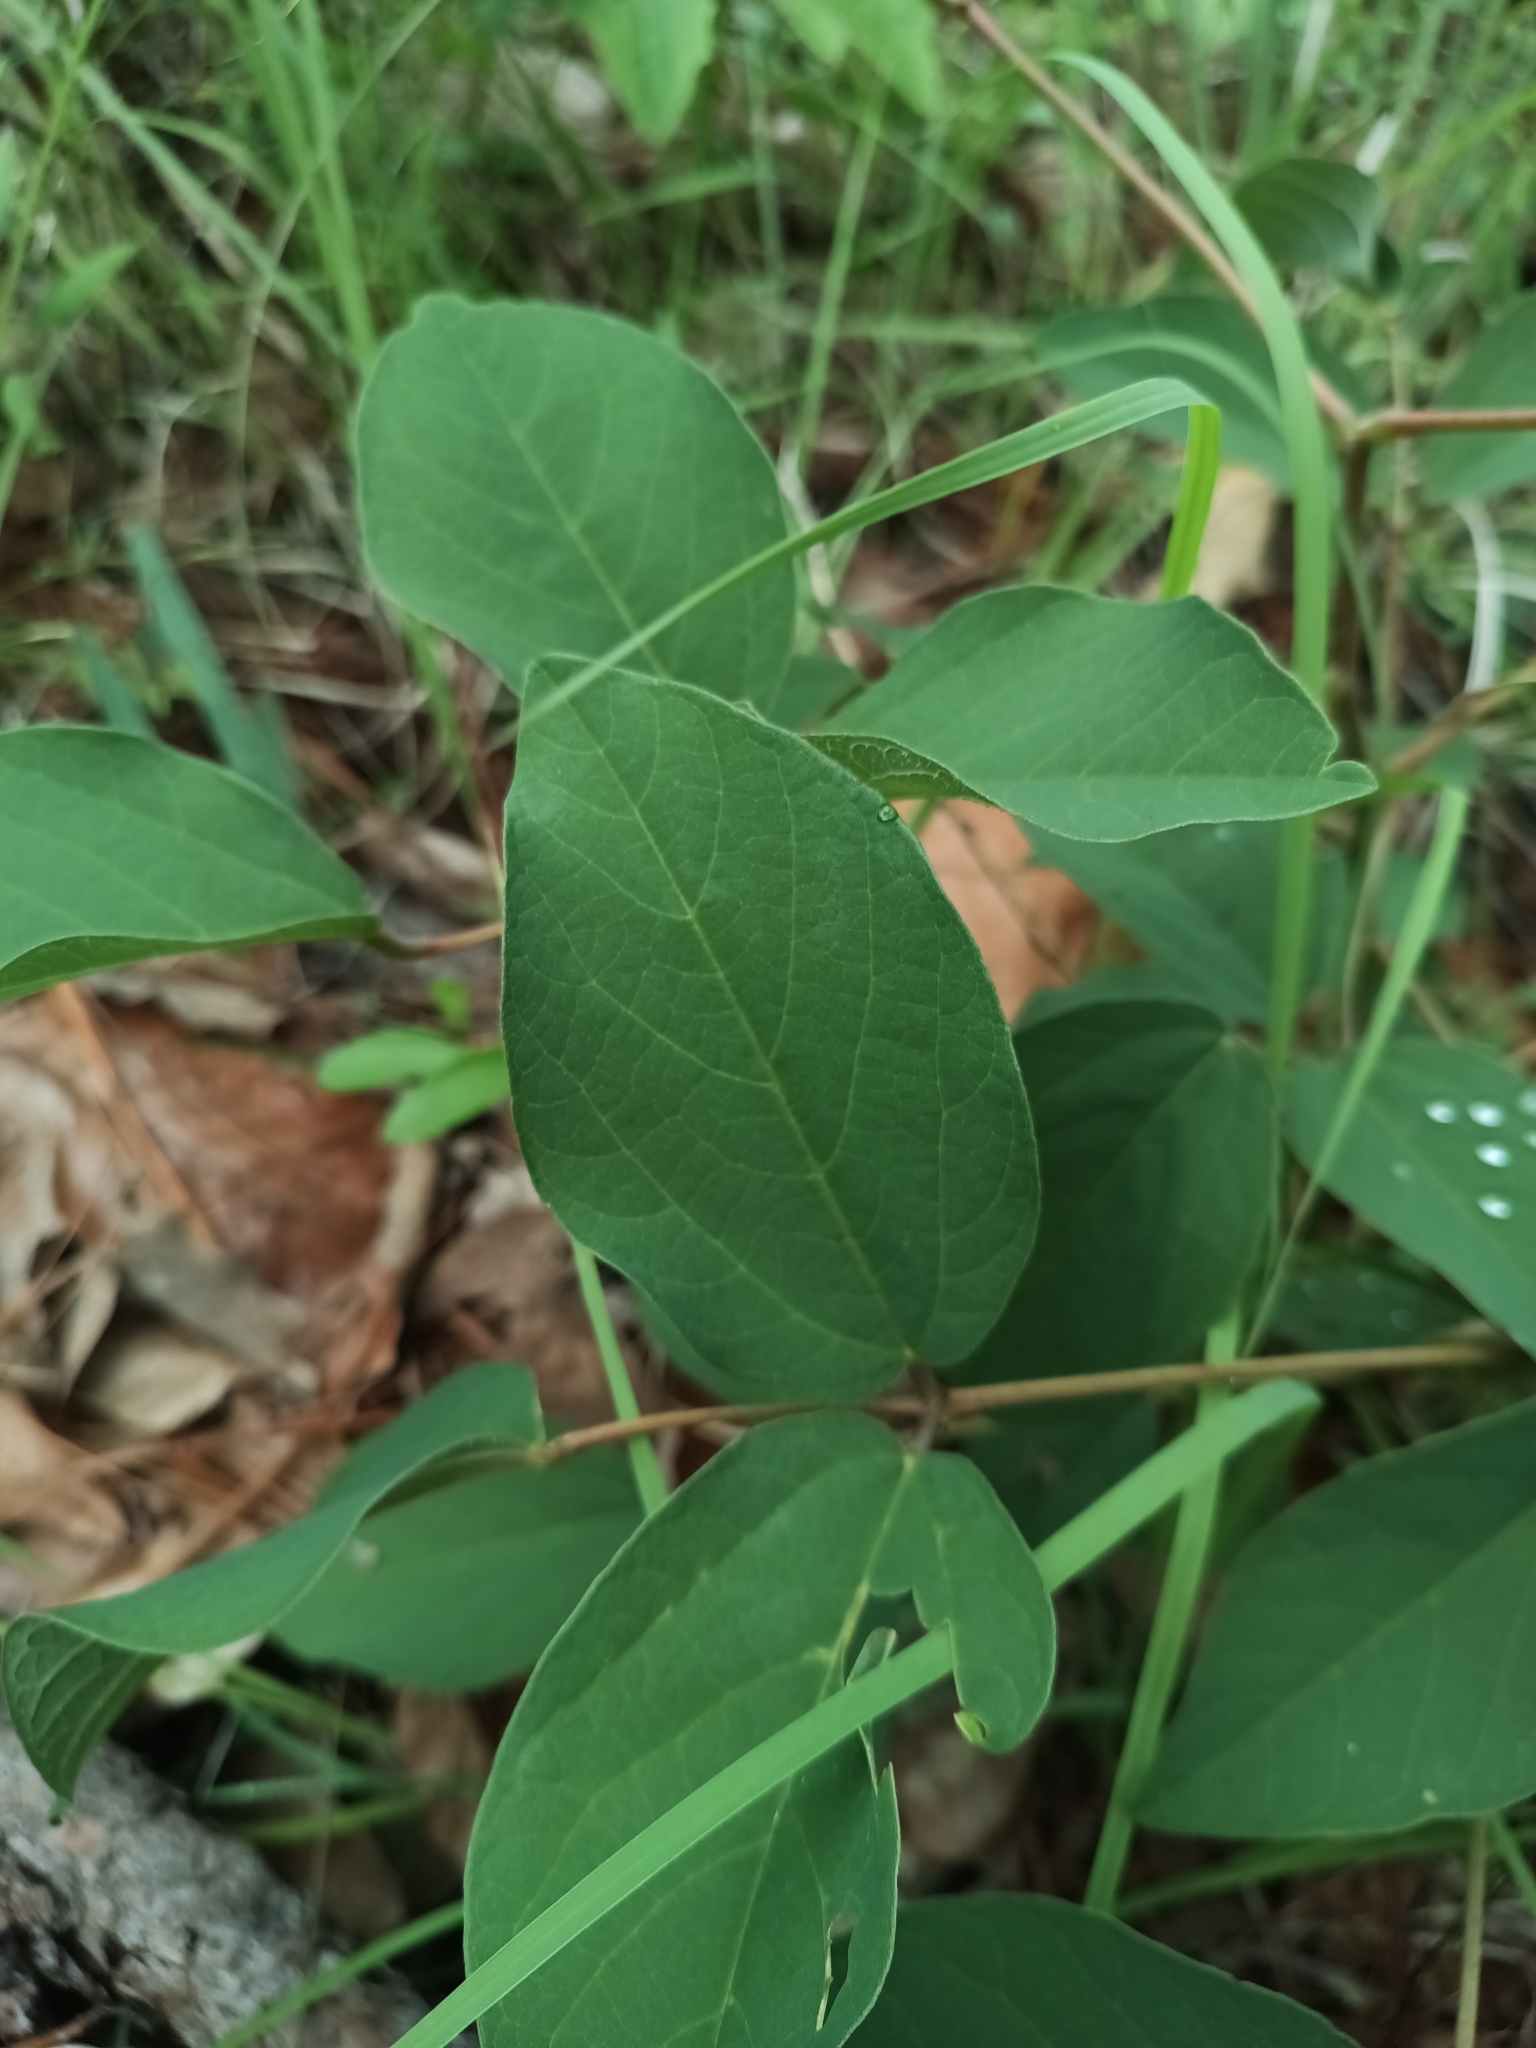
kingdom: Plantae
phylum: Tracheophyta
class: Magnoliopsida
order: Fabales
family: Fabaceae
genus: Erythrina
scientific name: Erythrina leptorhiza
